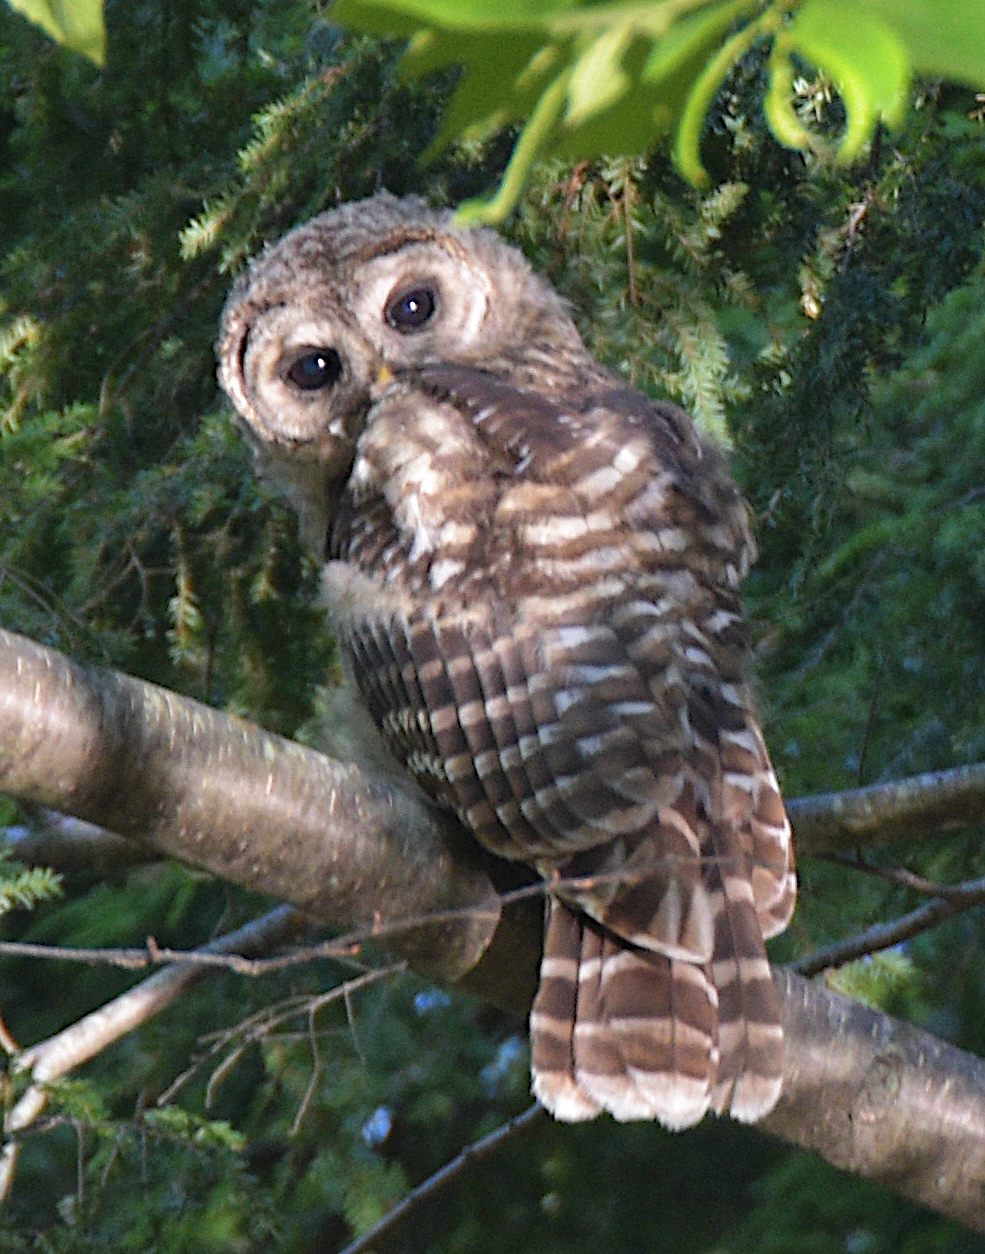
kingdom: Animalia
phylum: Chordata
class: Aves
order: Strigiformes
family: Strigidae
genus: Strix
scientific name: Strix varia
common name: Barred owl
